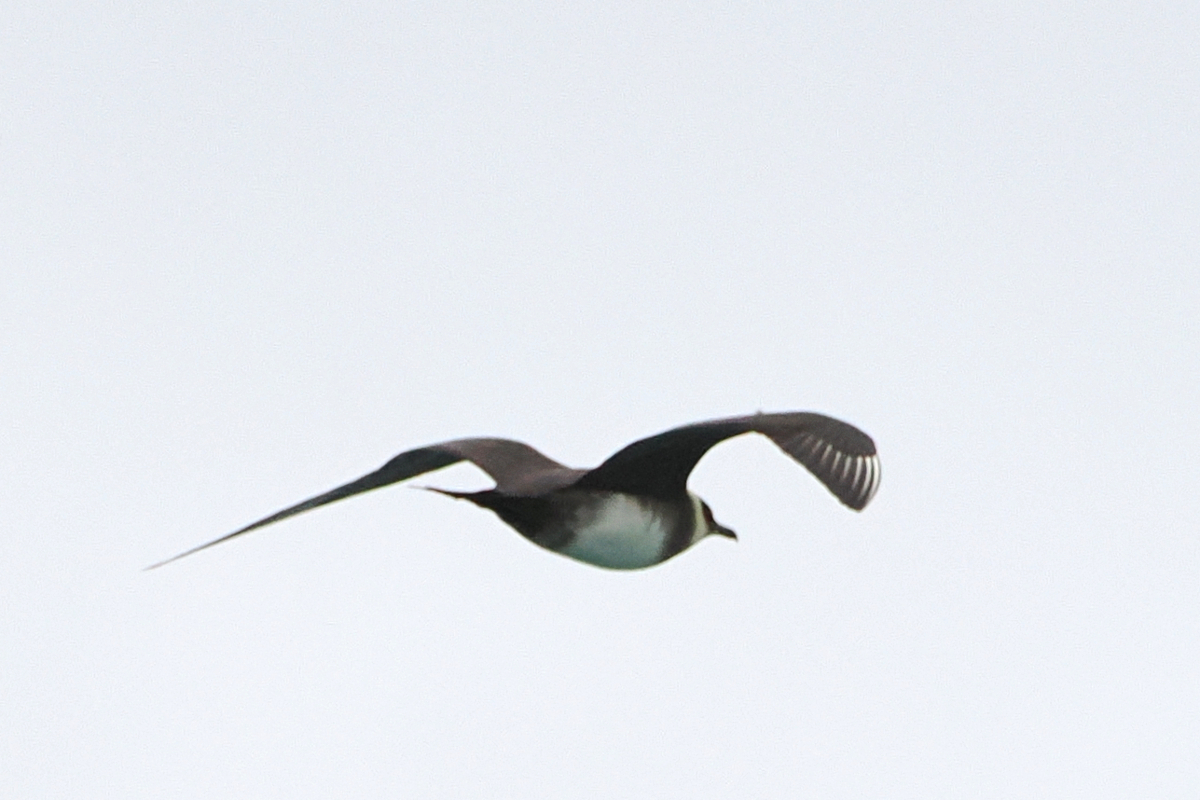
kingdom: Animalia
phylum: Chordata
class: Aves
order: Charadriiformes
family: Stercorariidae
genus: Stercorarius
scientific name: Stercorarius parasiticus
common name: Parasitic jaeger
